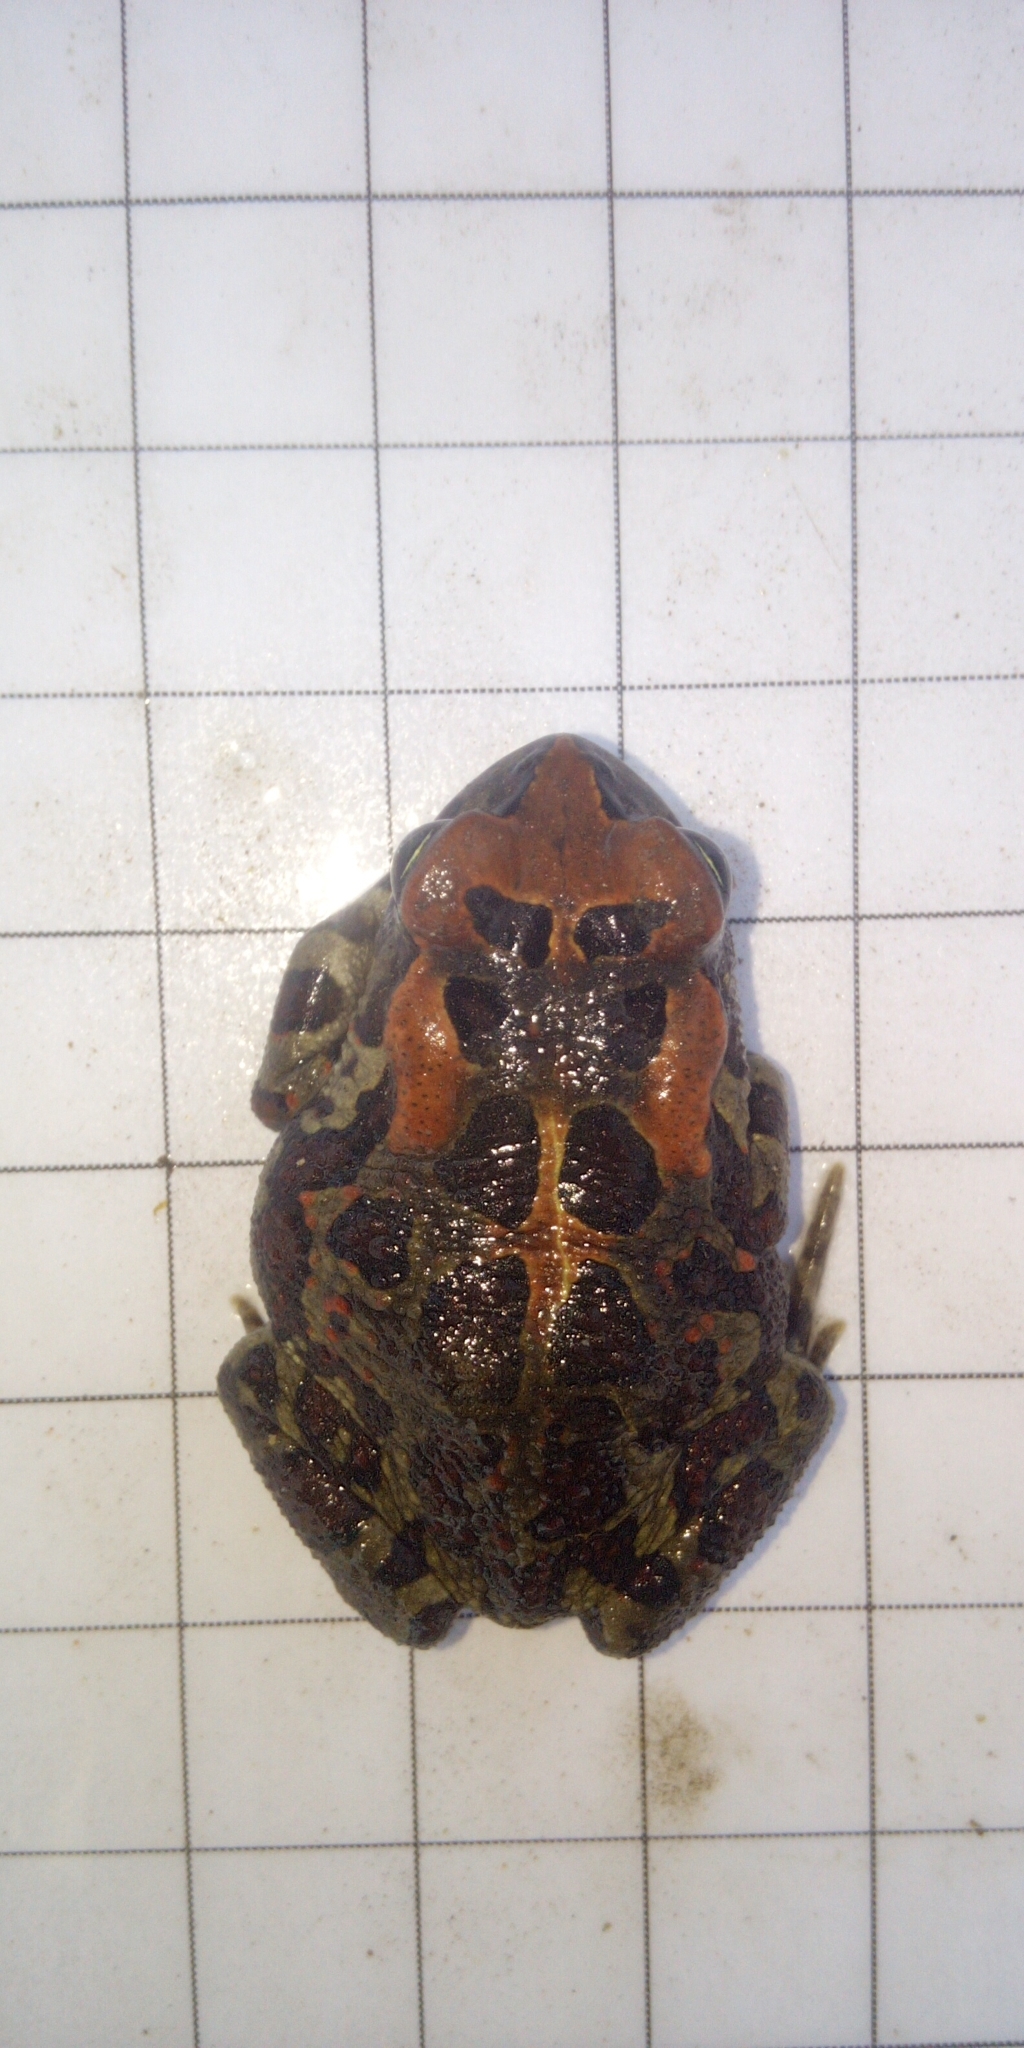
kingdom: Animalia
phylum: Chordata
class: Amphibia
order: Anura
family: Bufonidae
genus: Sclerophrys
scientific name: Sclerophrys pantherina
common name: Panther toad
